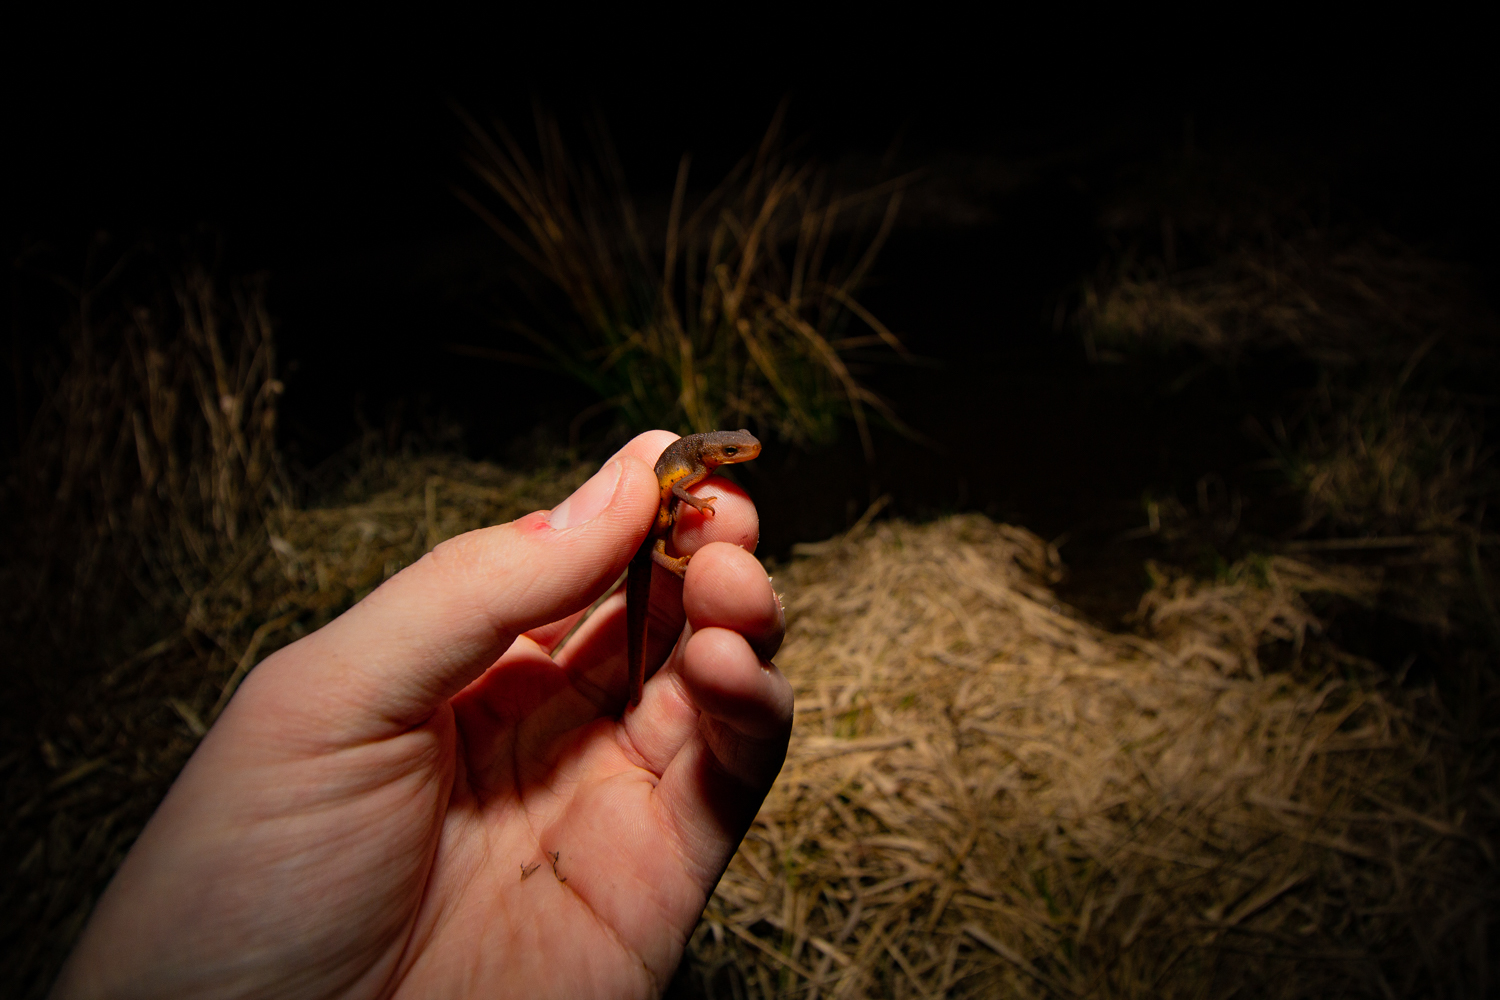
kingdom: Animalia
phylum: Chordata
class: Amphibia
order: Caudata
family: Salamandridae
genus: Notophthalmus
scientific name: Notophthalmus viridescens
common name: Eastern newt
